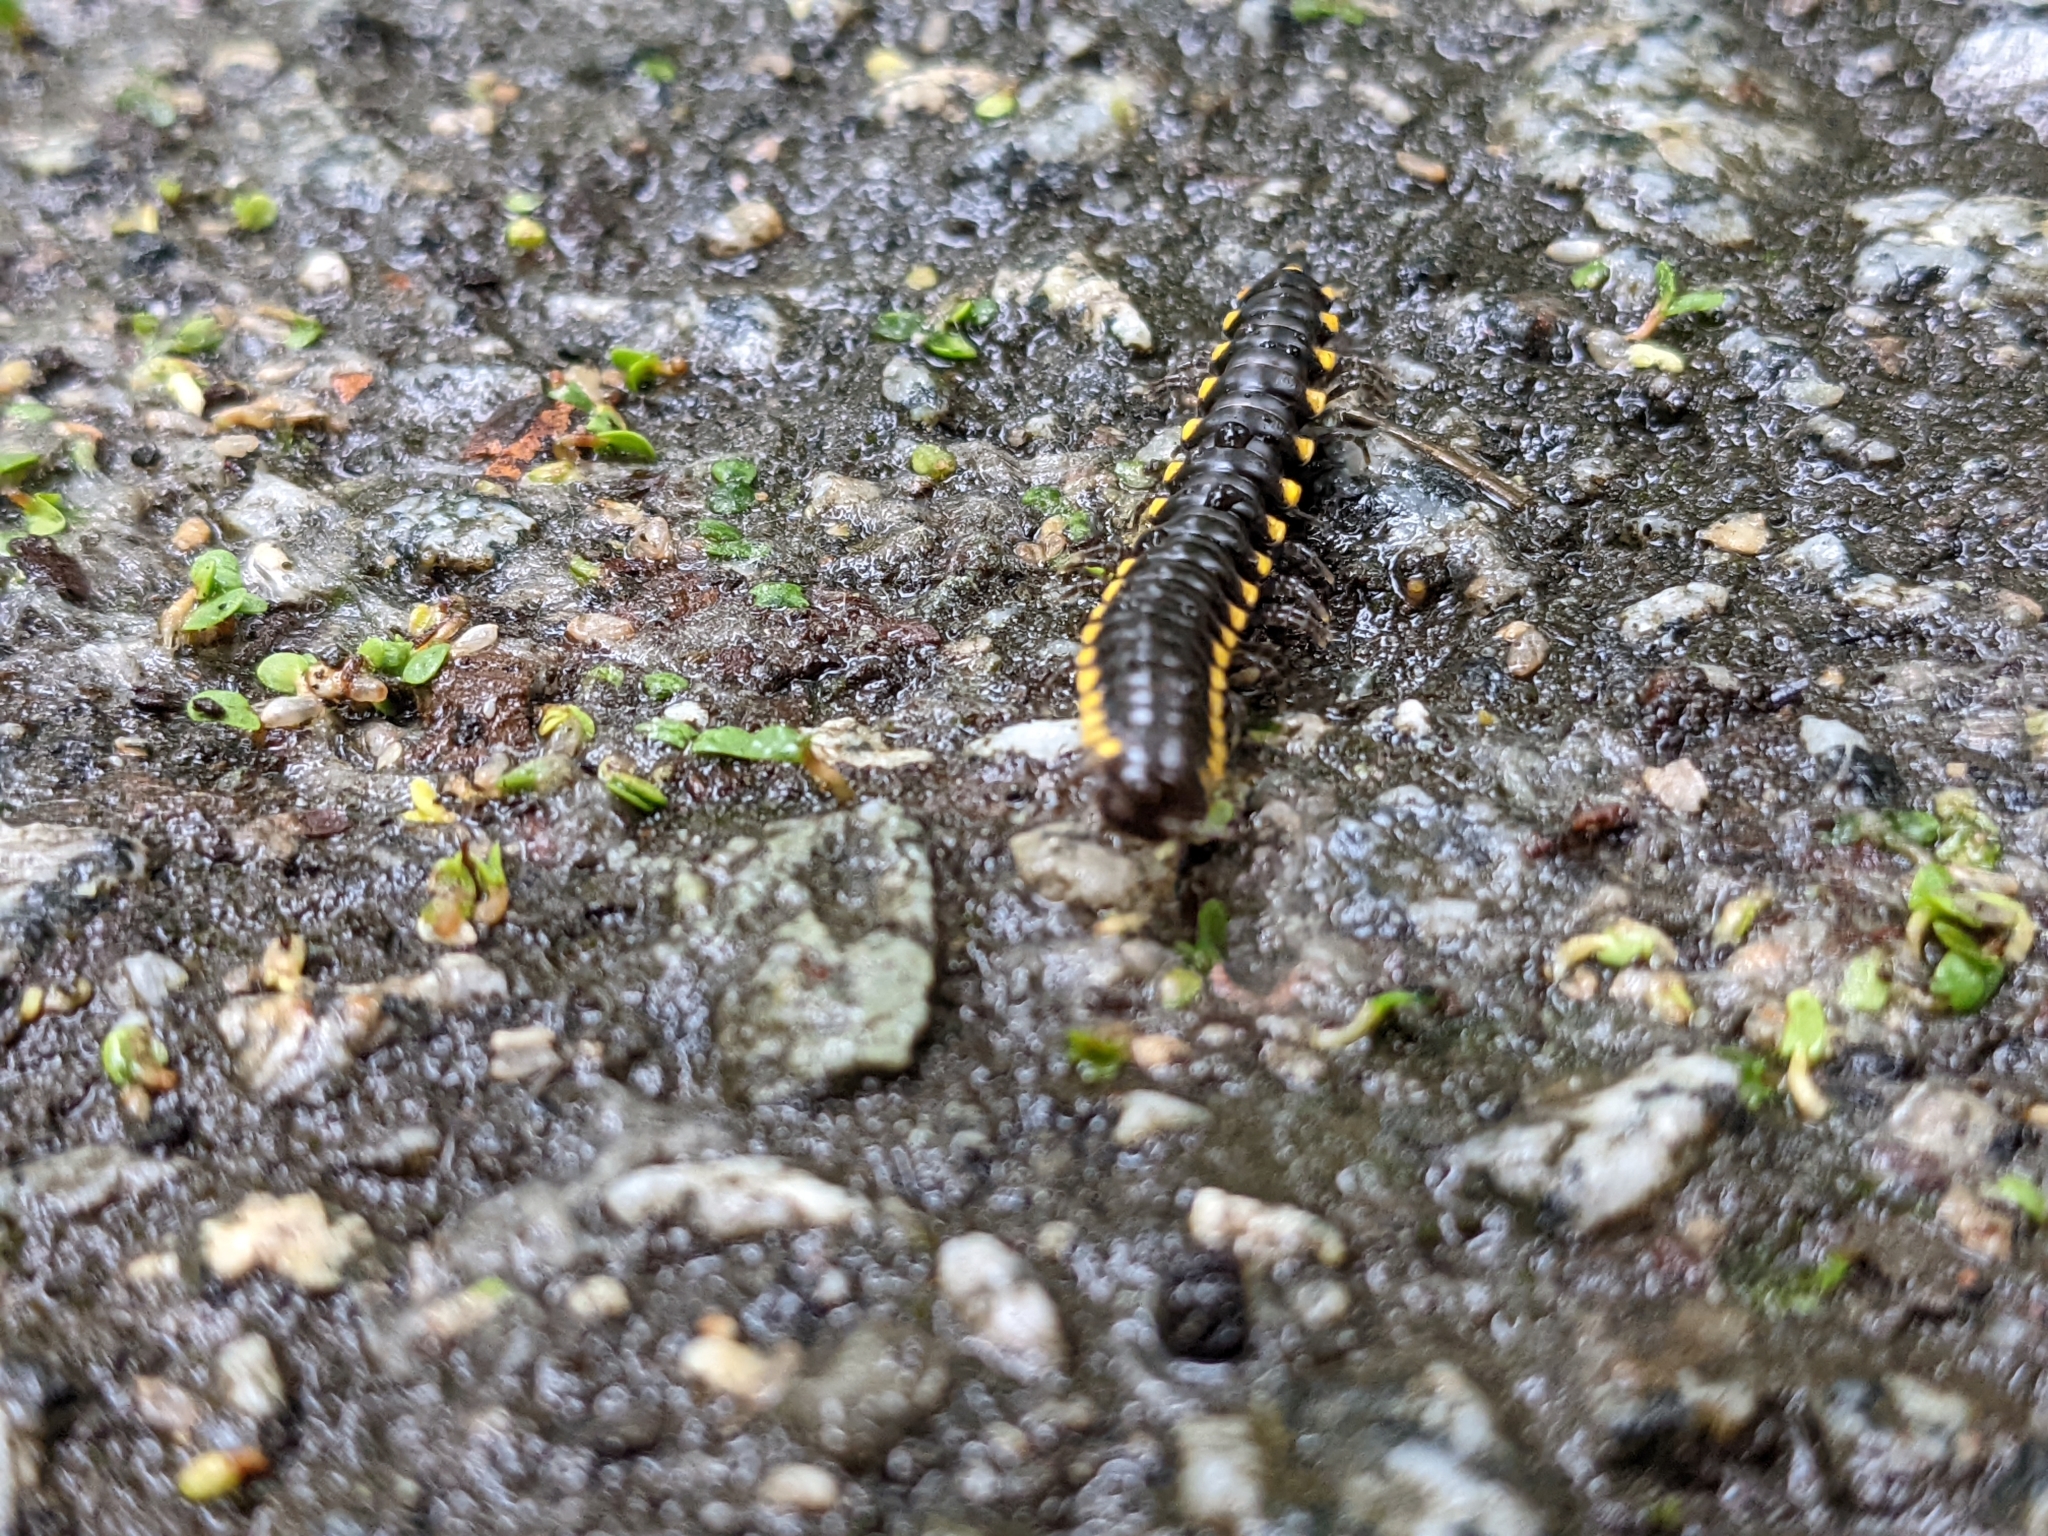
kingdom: Animalia
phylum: Arthropoda
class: Diplopoda
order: Polydesmida
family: Xystodesmidae
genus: Harpaphe
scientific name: Harpaphe haydeniana
